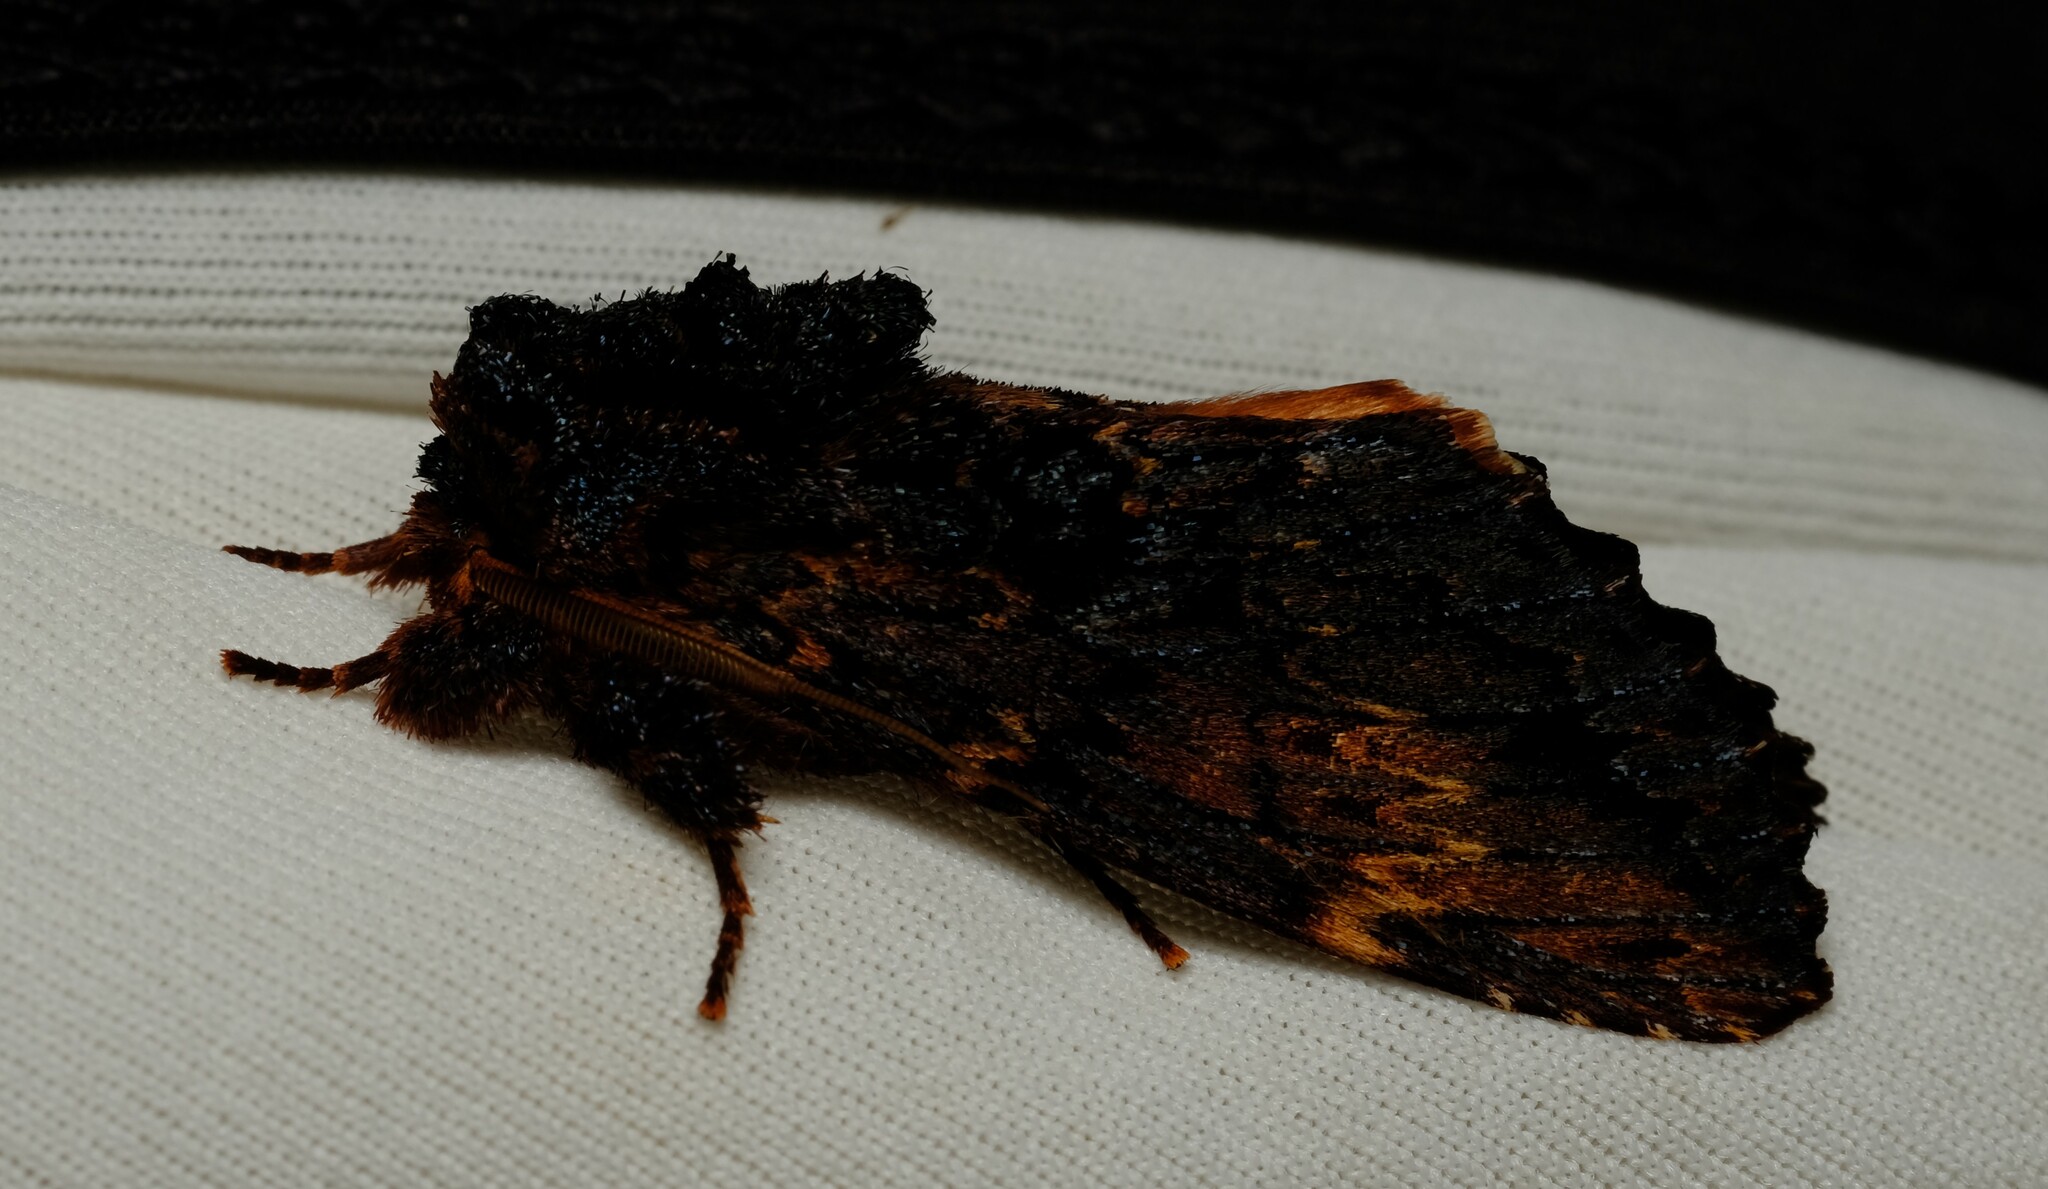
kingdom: Animalia
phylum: Arthropoda
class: Insecta
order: Lepidoptera
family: Notodontidae
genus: Sorama
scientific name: Sorama bicolor
